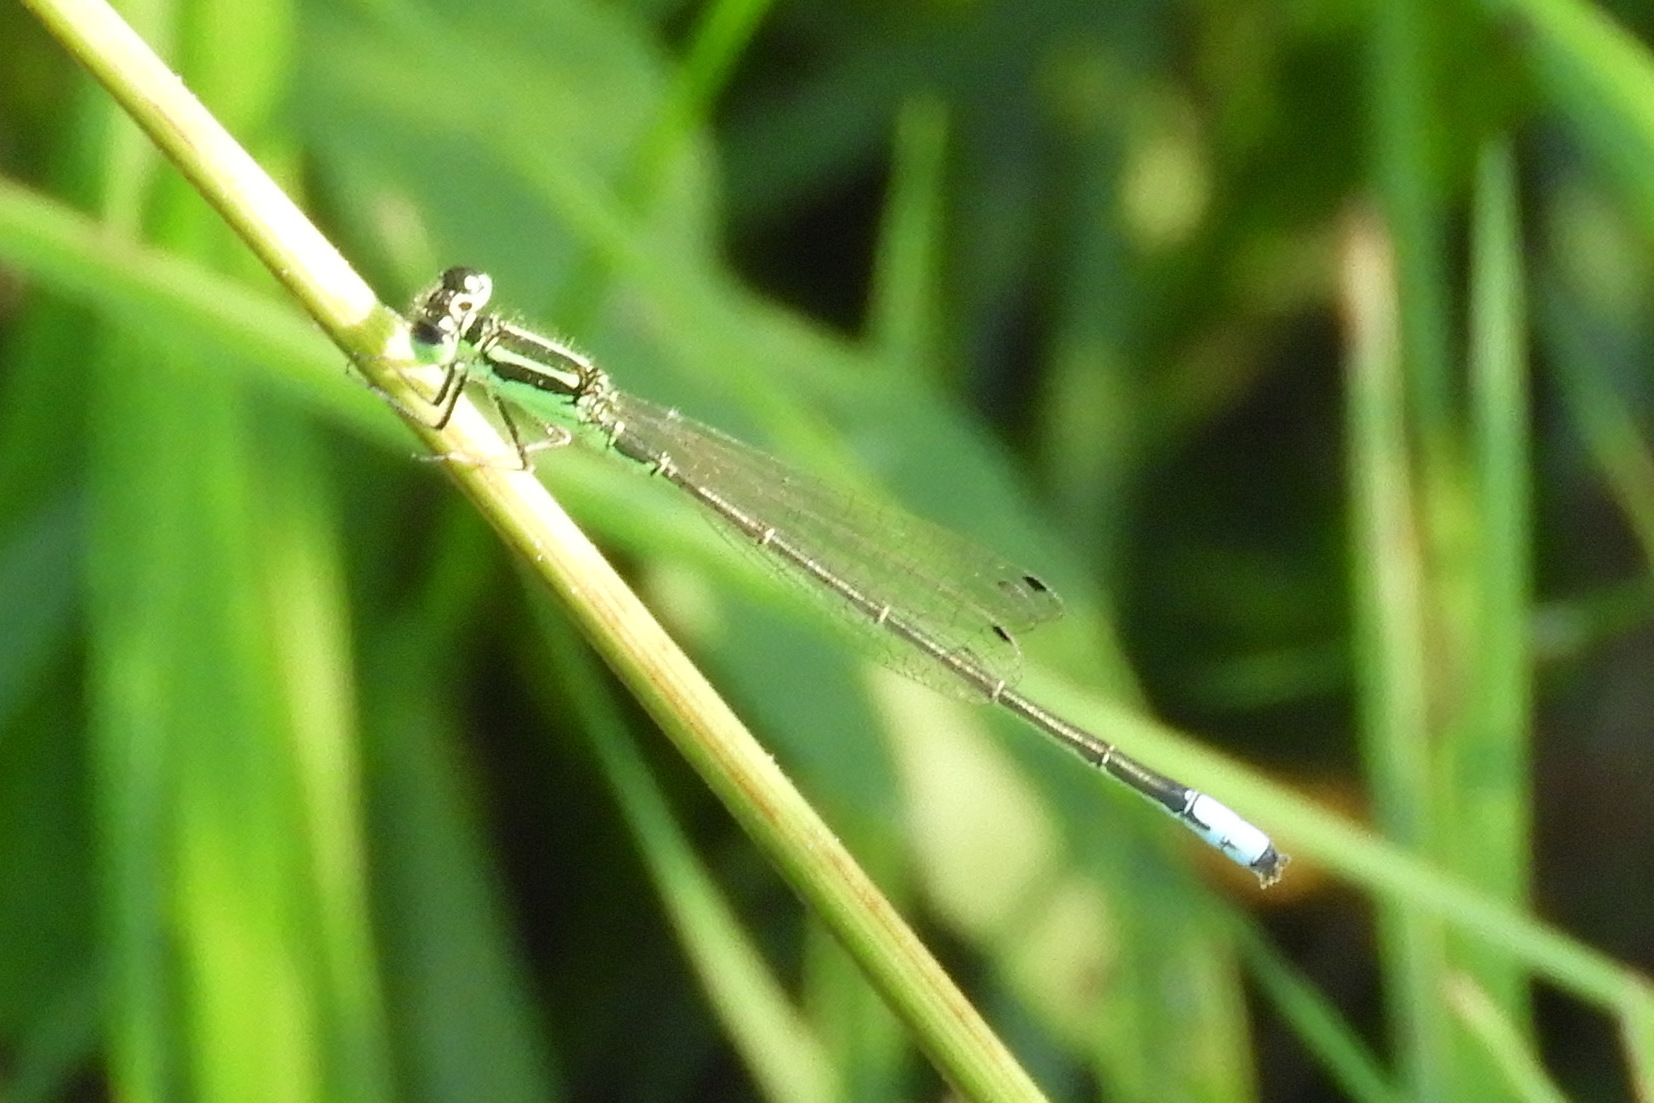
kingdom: Animalia
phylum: Arthropoda
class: Insecta
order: Odonata
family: Coenagrionidae
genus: Ischnura
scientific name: Ischnura verticalis
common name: Eastern forktail
